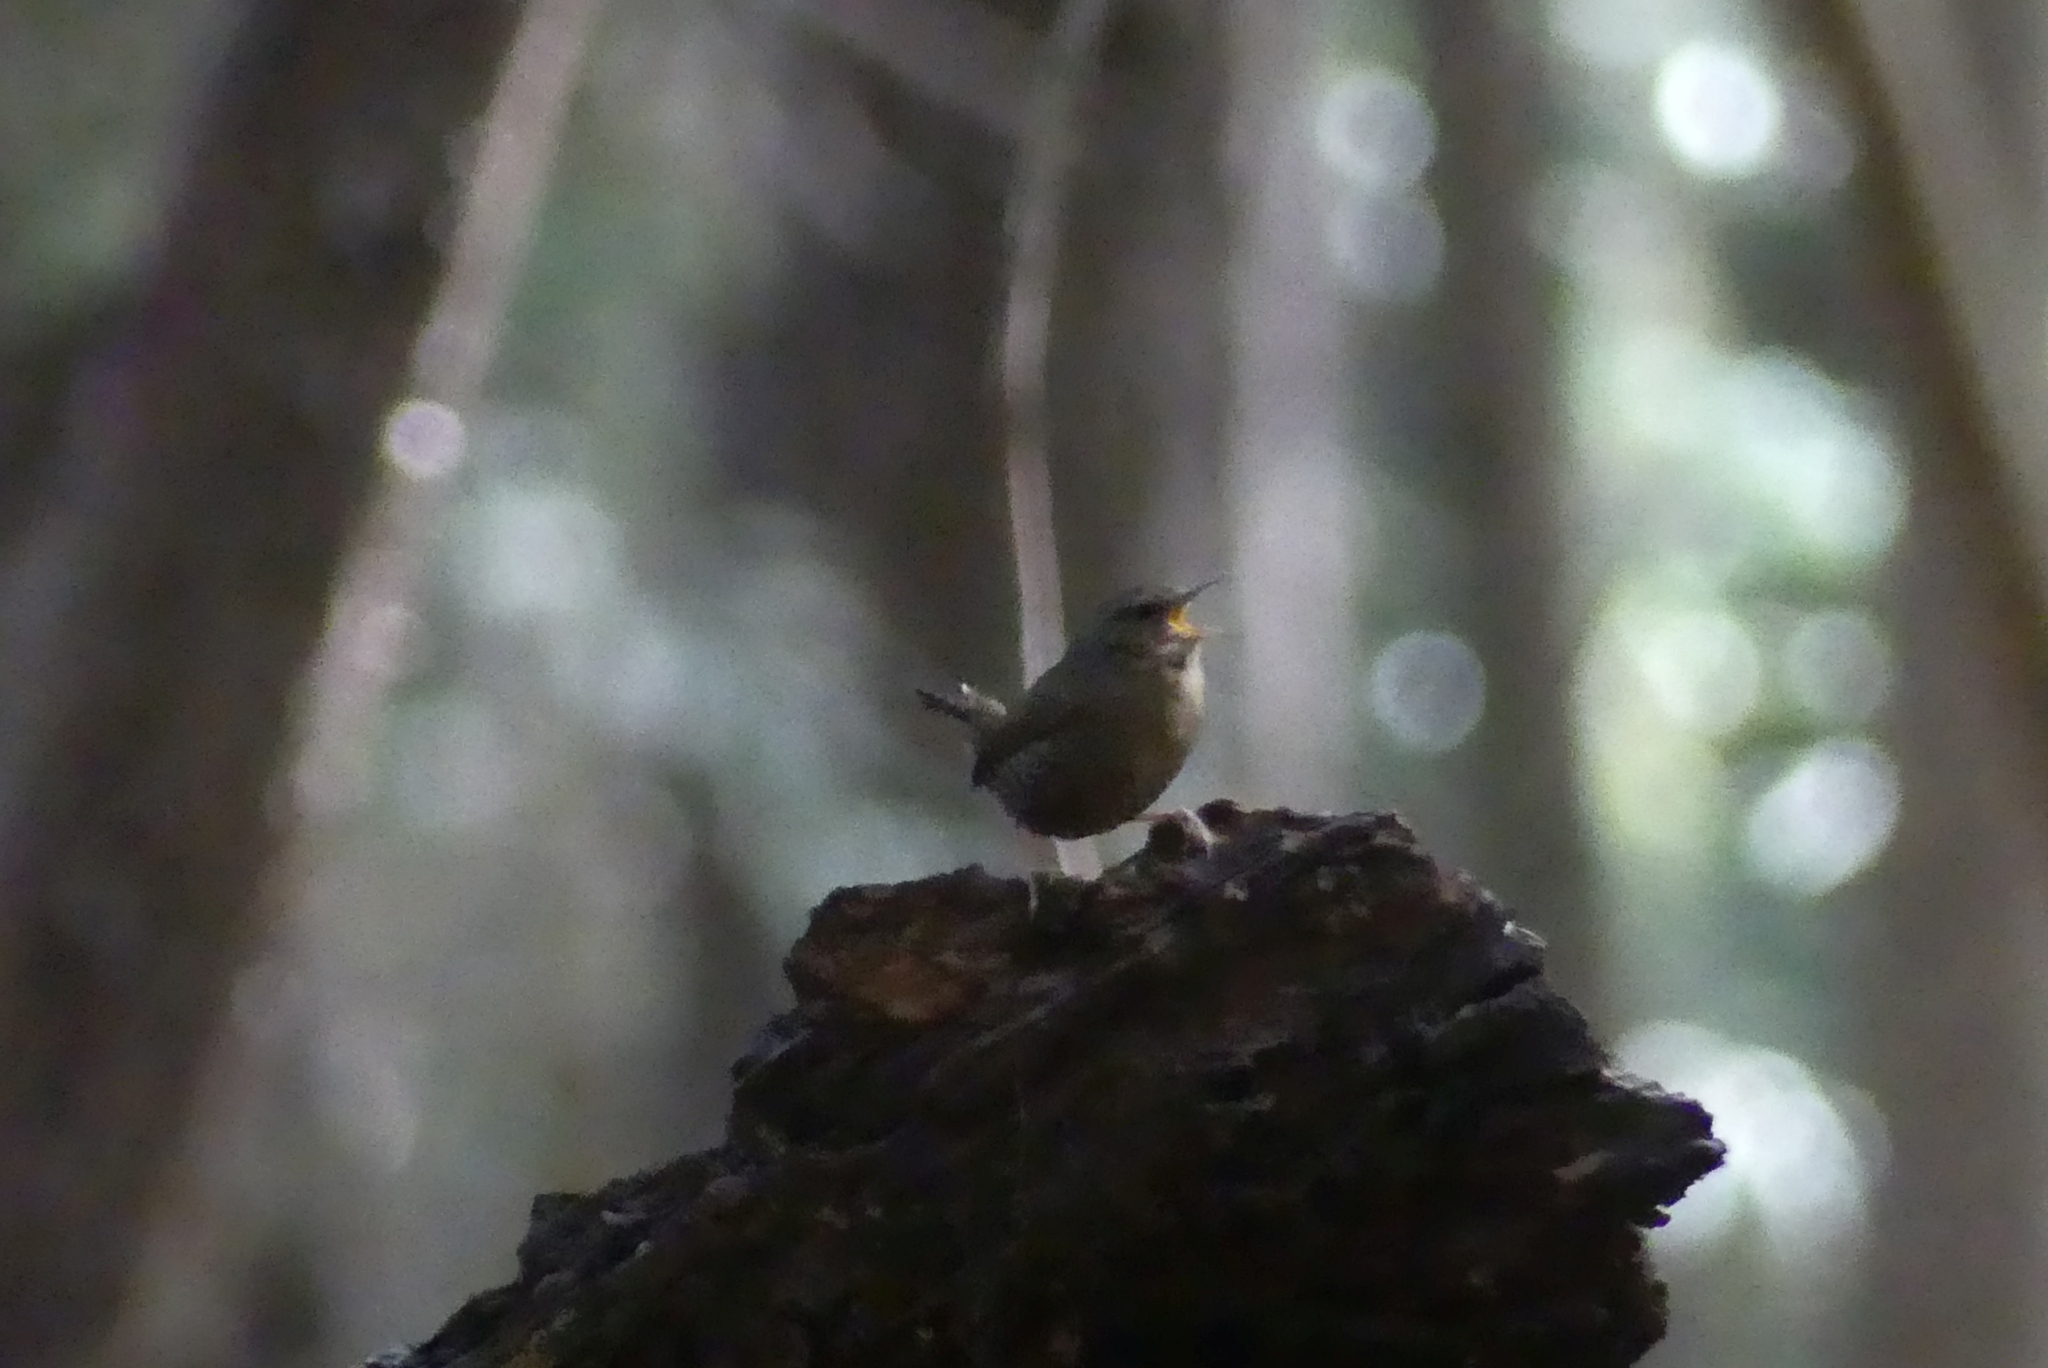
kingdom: Animalia
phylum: Chordata
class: Aves
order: Passeriformes
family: Troglodytidae
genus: Troglodytes
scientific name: Troglodytes pacificus
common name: Pacific wren
